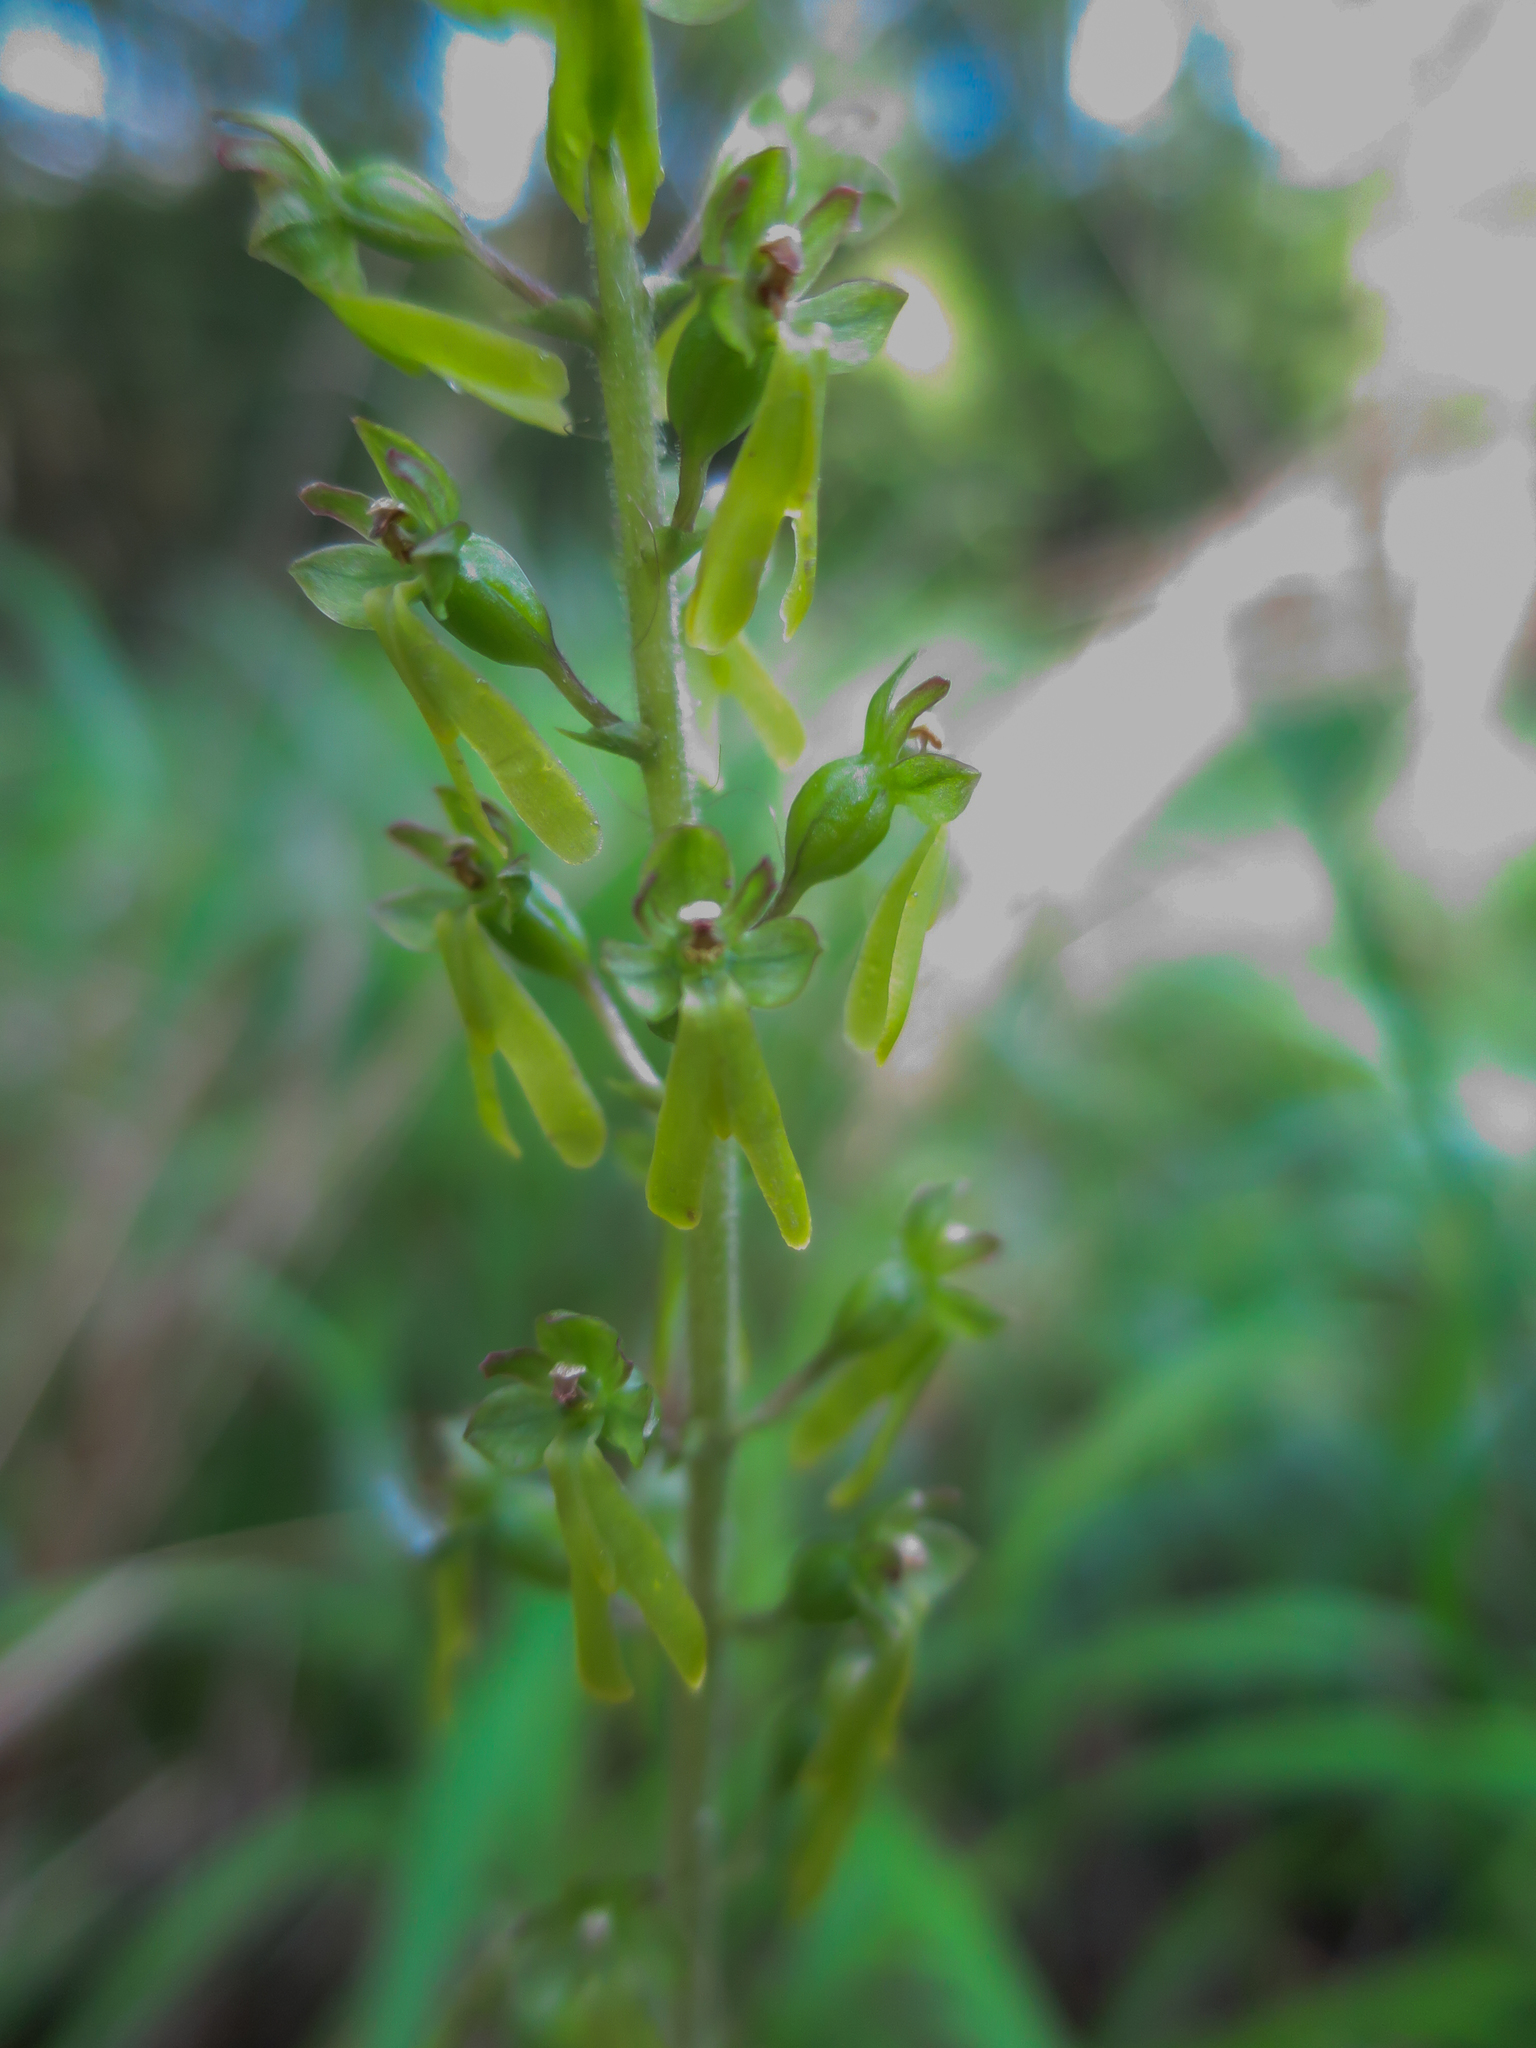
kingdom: Plantae
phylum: Tracheophyta
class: Liliopsida
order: Asparagales
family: Orchidaceae
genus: Neottia
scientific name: Neottia ovata
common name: Common twayblade
